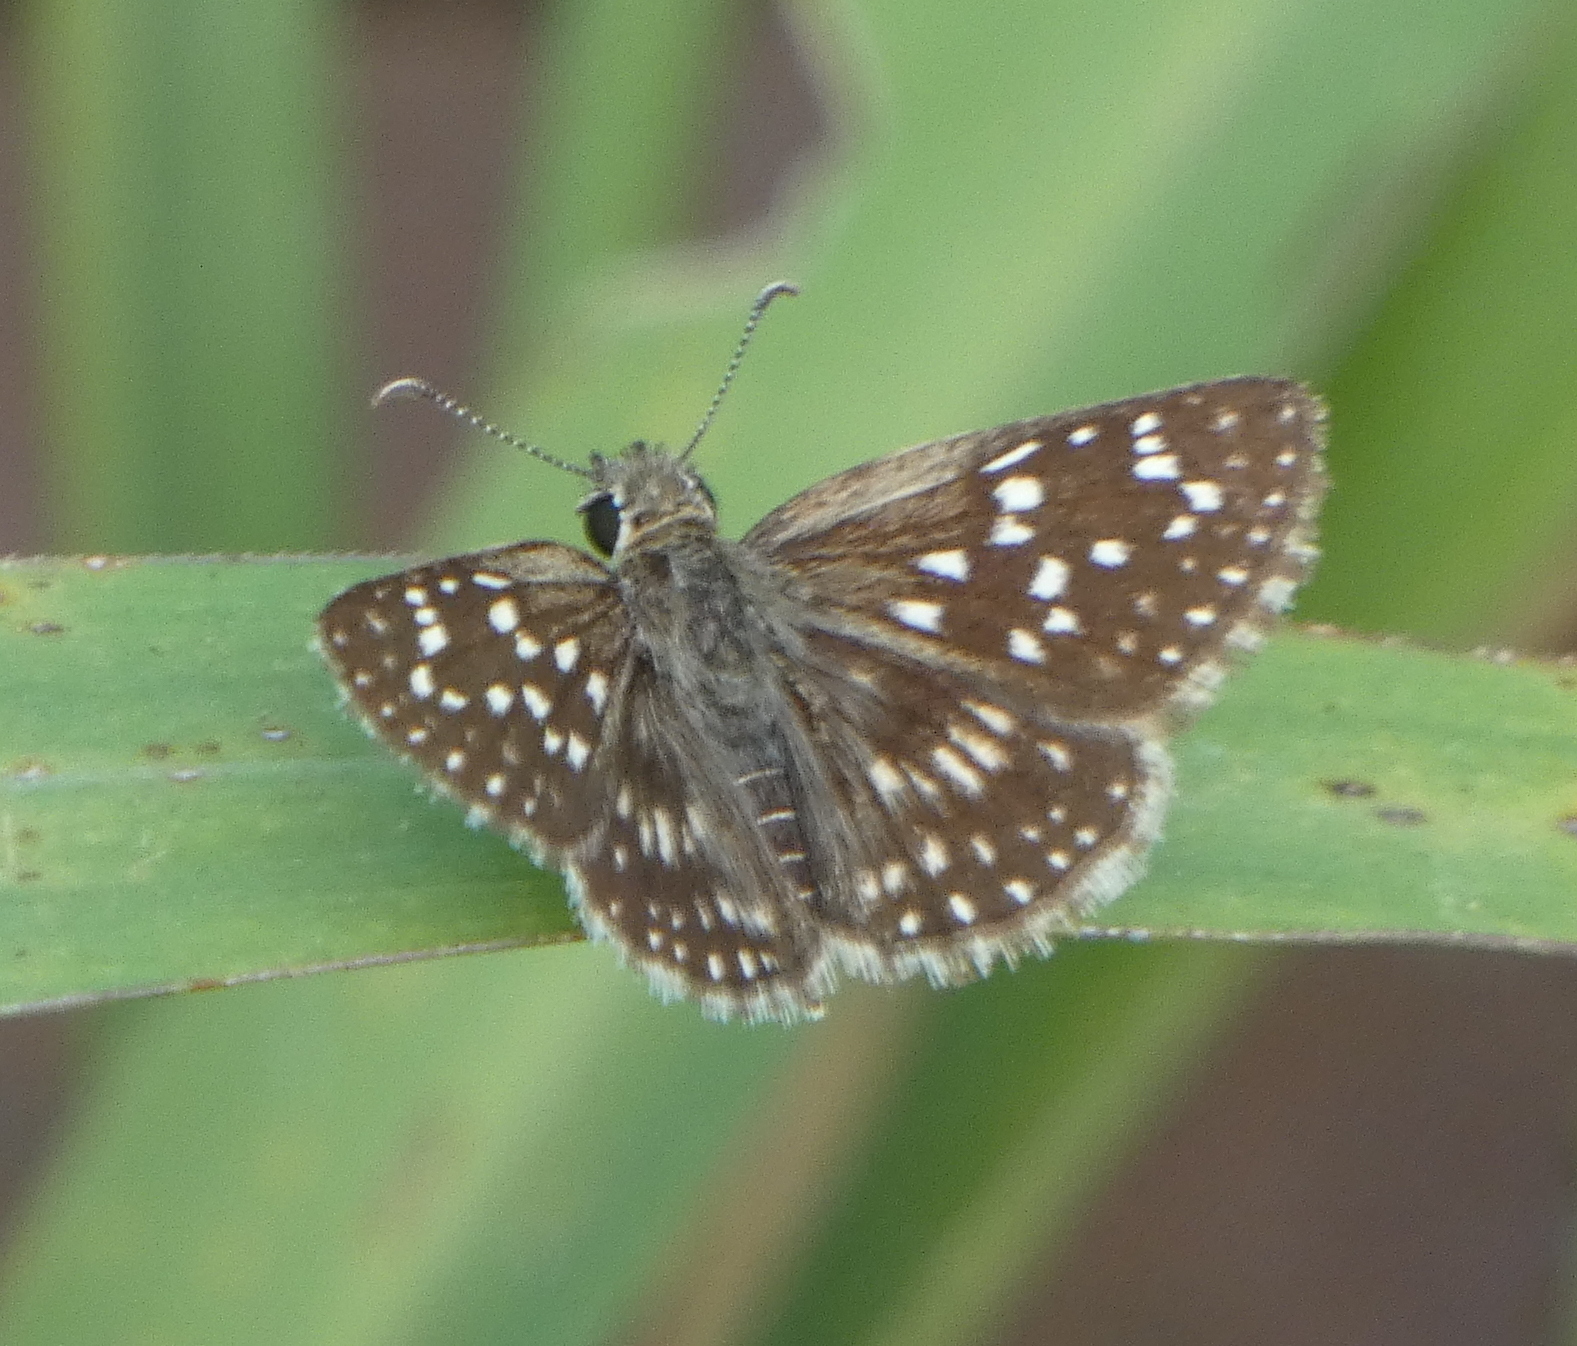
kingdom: Animalia
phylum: Arthropoda
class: Insecta
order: Lepidoptera
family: Hesperiidae
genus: Chirgus
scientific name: Chirgus
